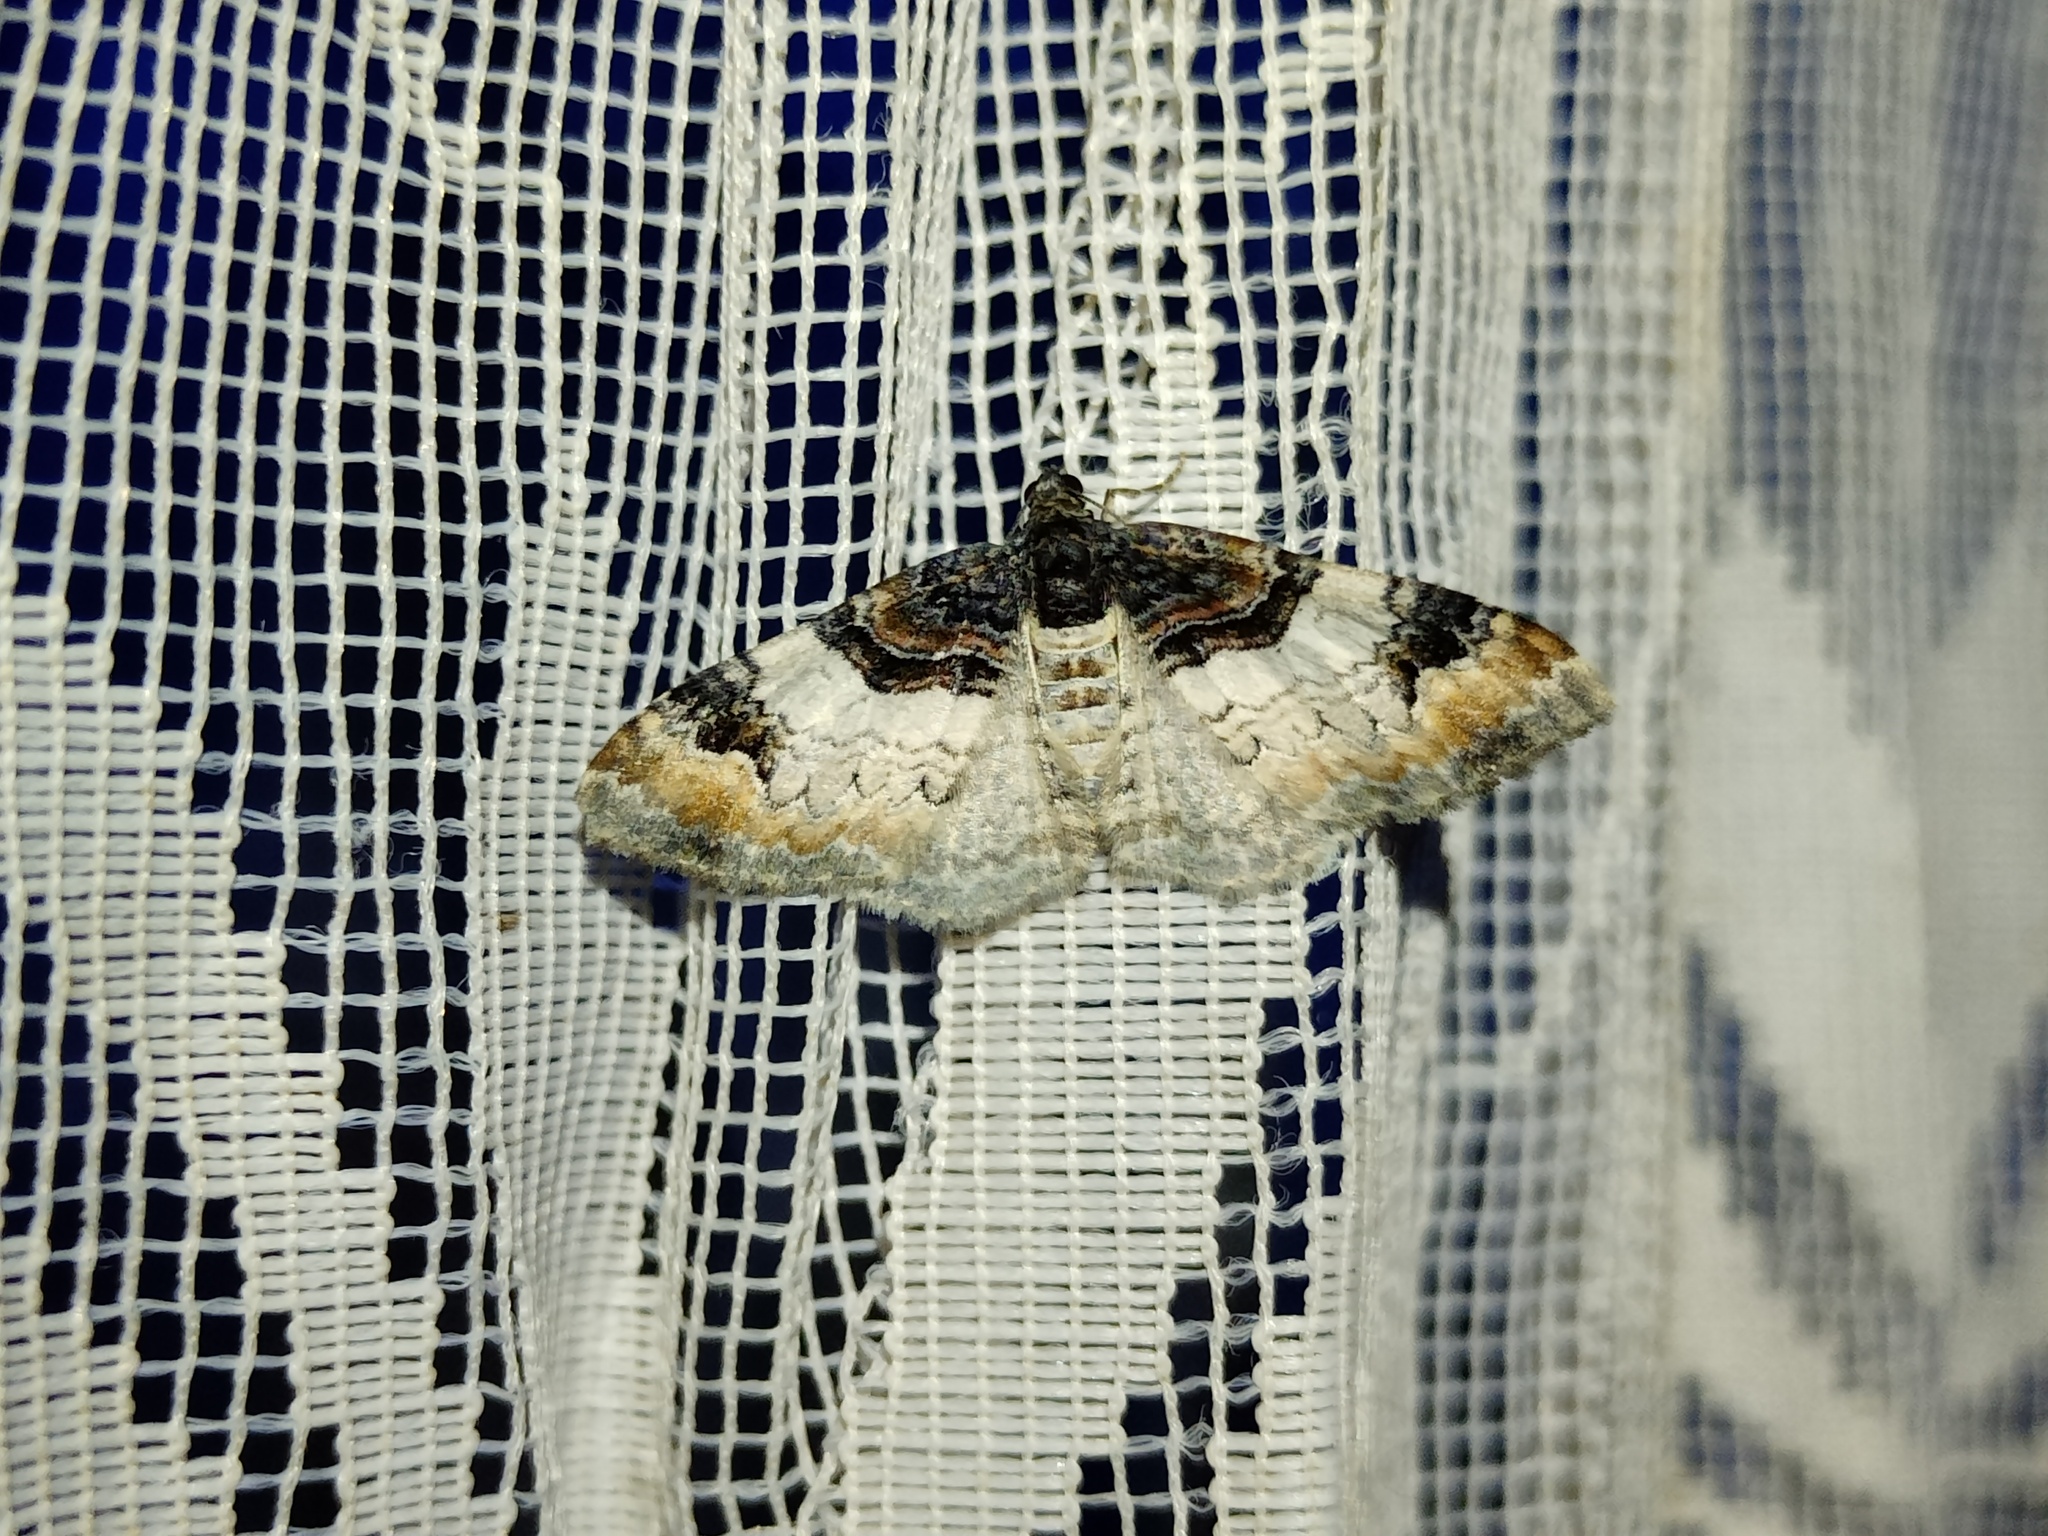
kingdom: Animalia
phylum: Arthropoda
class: Insecta
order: Lepidoptera
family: Geometridae
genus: Catarhoe
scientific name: Catarhoe cuculata
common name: Royal mantle
